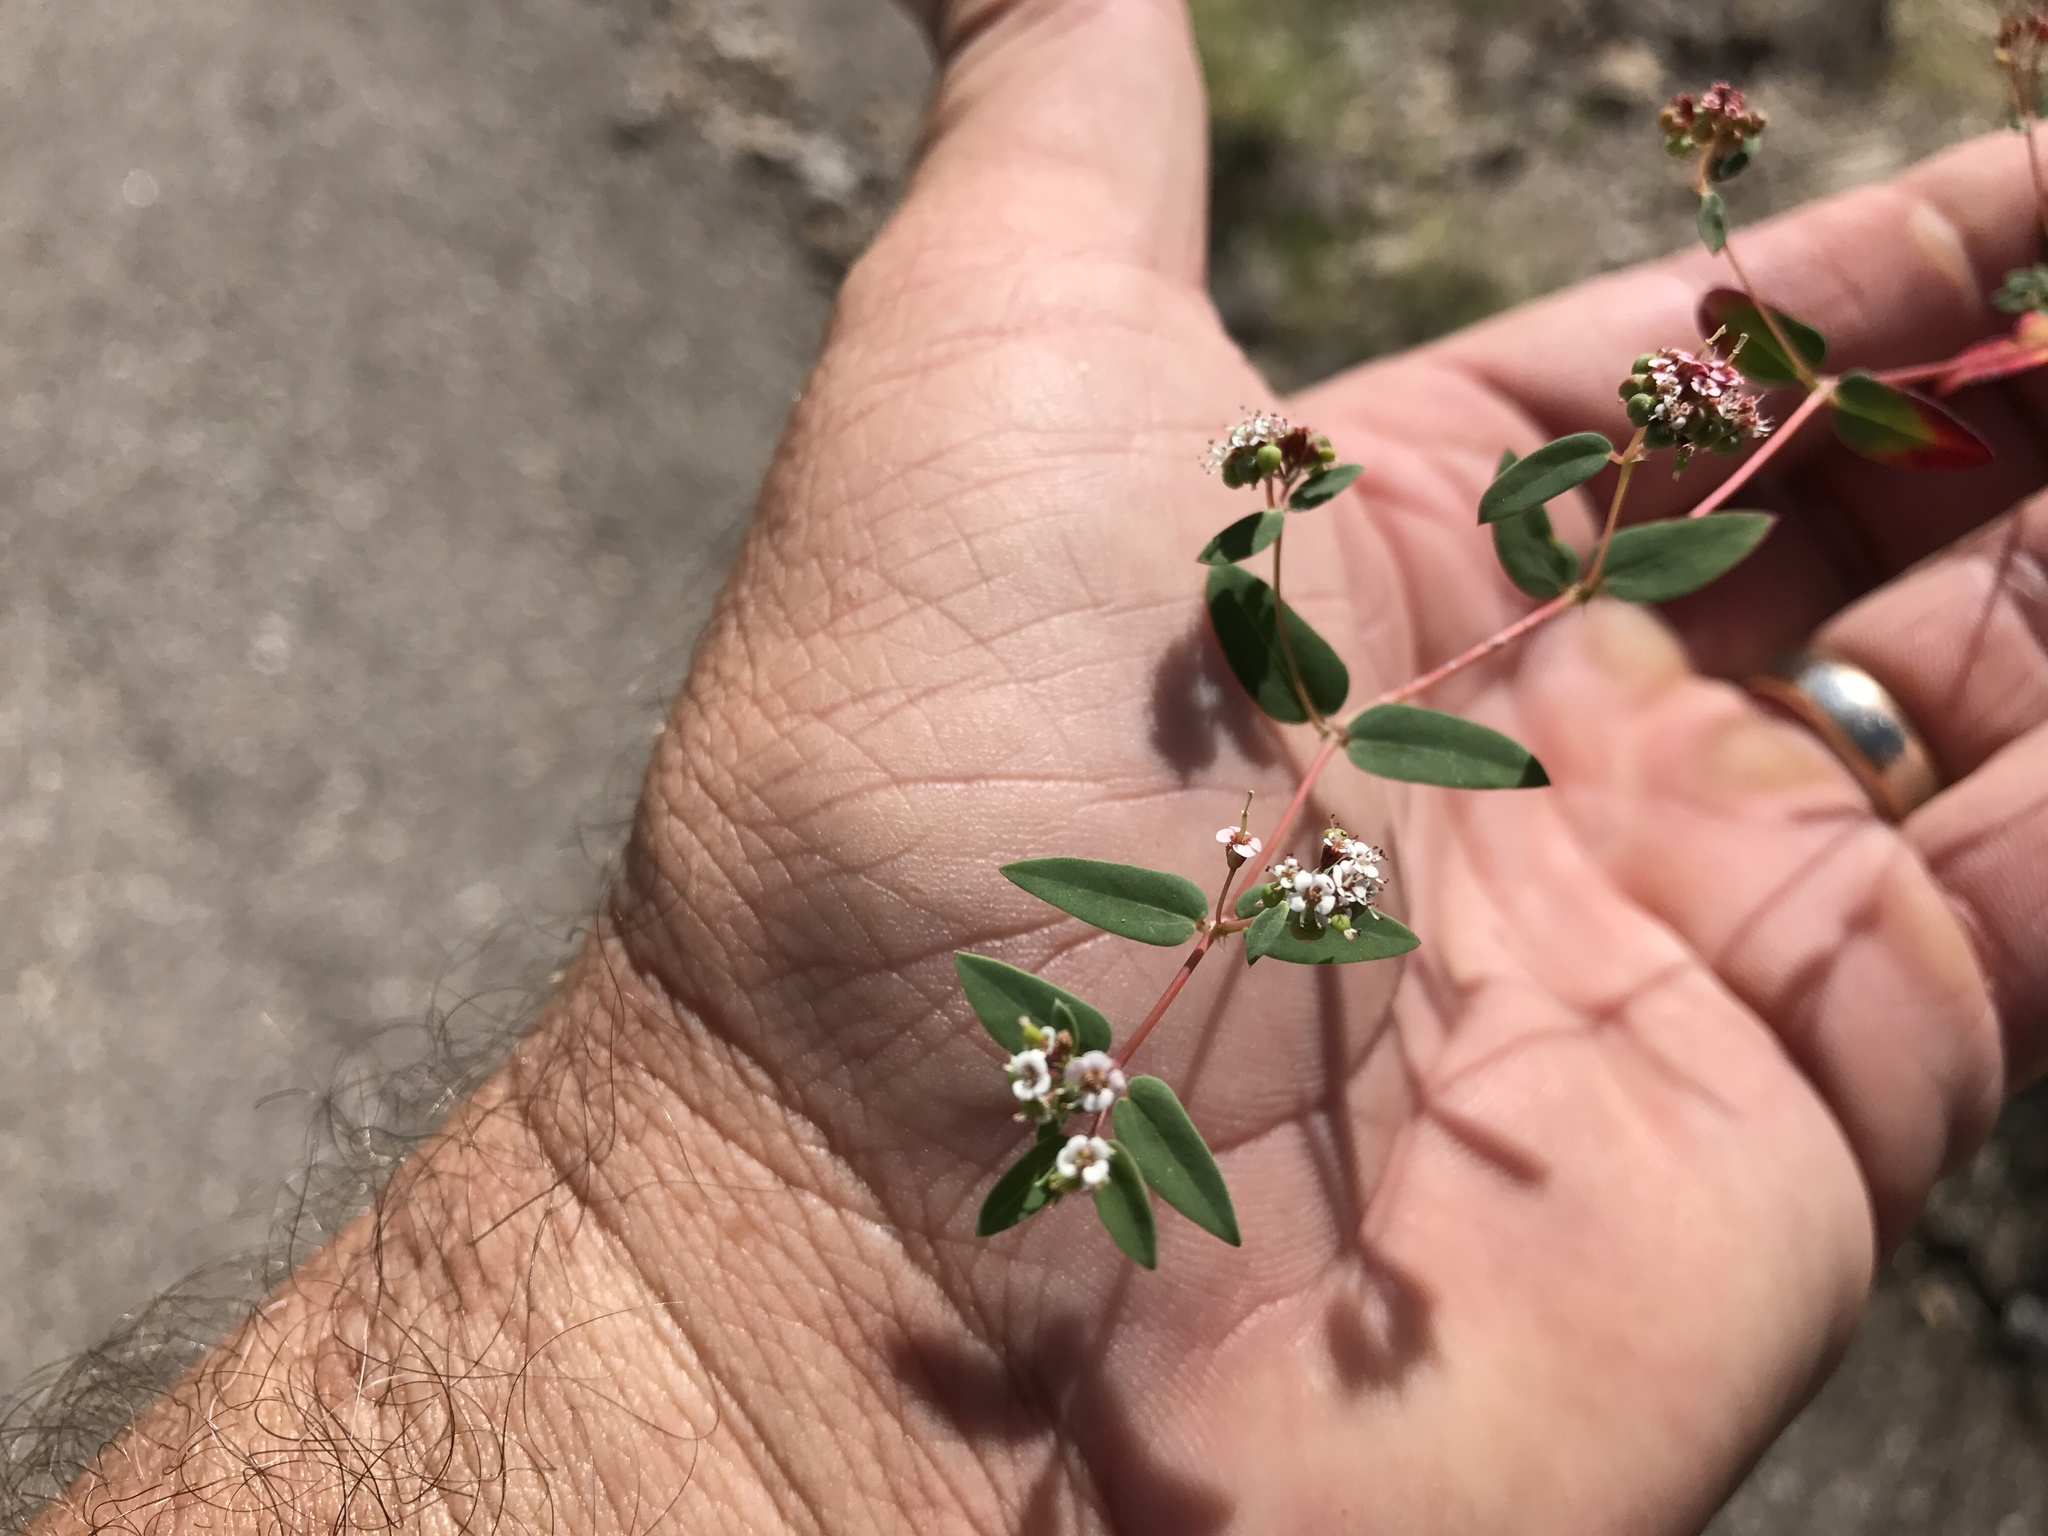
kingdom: Plantae
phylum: Tracheophyta
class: Magnoliopsida
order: Malpighiales
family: Euphorbiaceae
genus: Euphorbia
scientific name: Euphorbia capitellata
